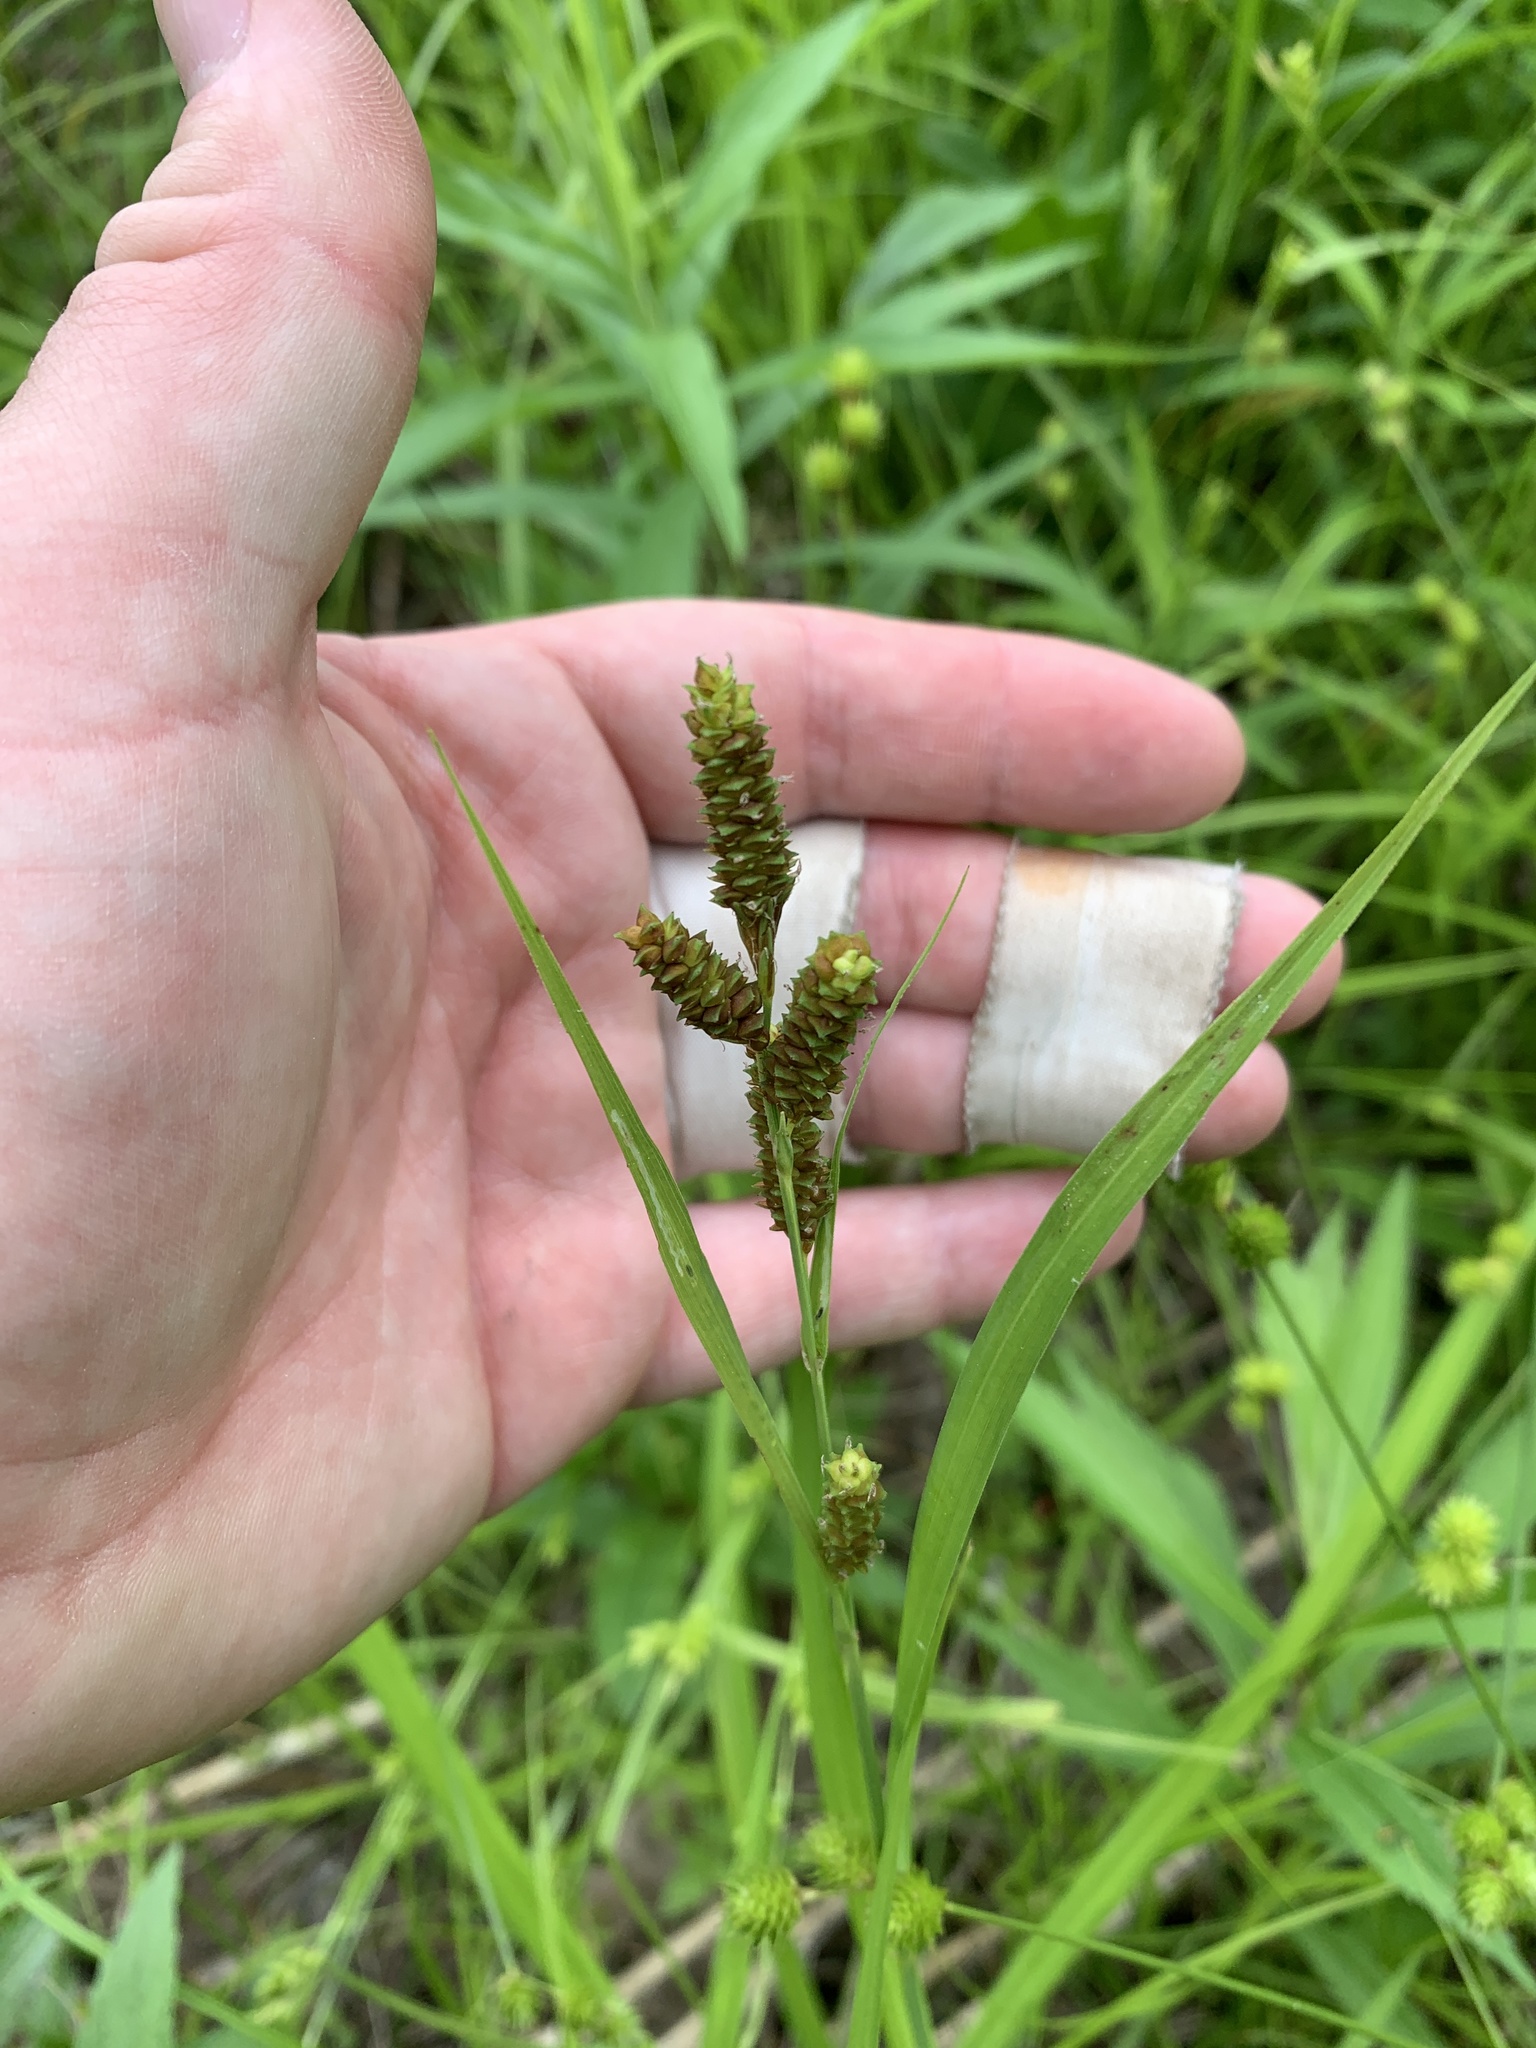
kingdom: Plantae
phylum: Tracheophyta
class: Liliopsida
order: Poales
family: Cyperaceae
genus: Carex
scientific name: Carex shortiana
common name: Short's sedge
